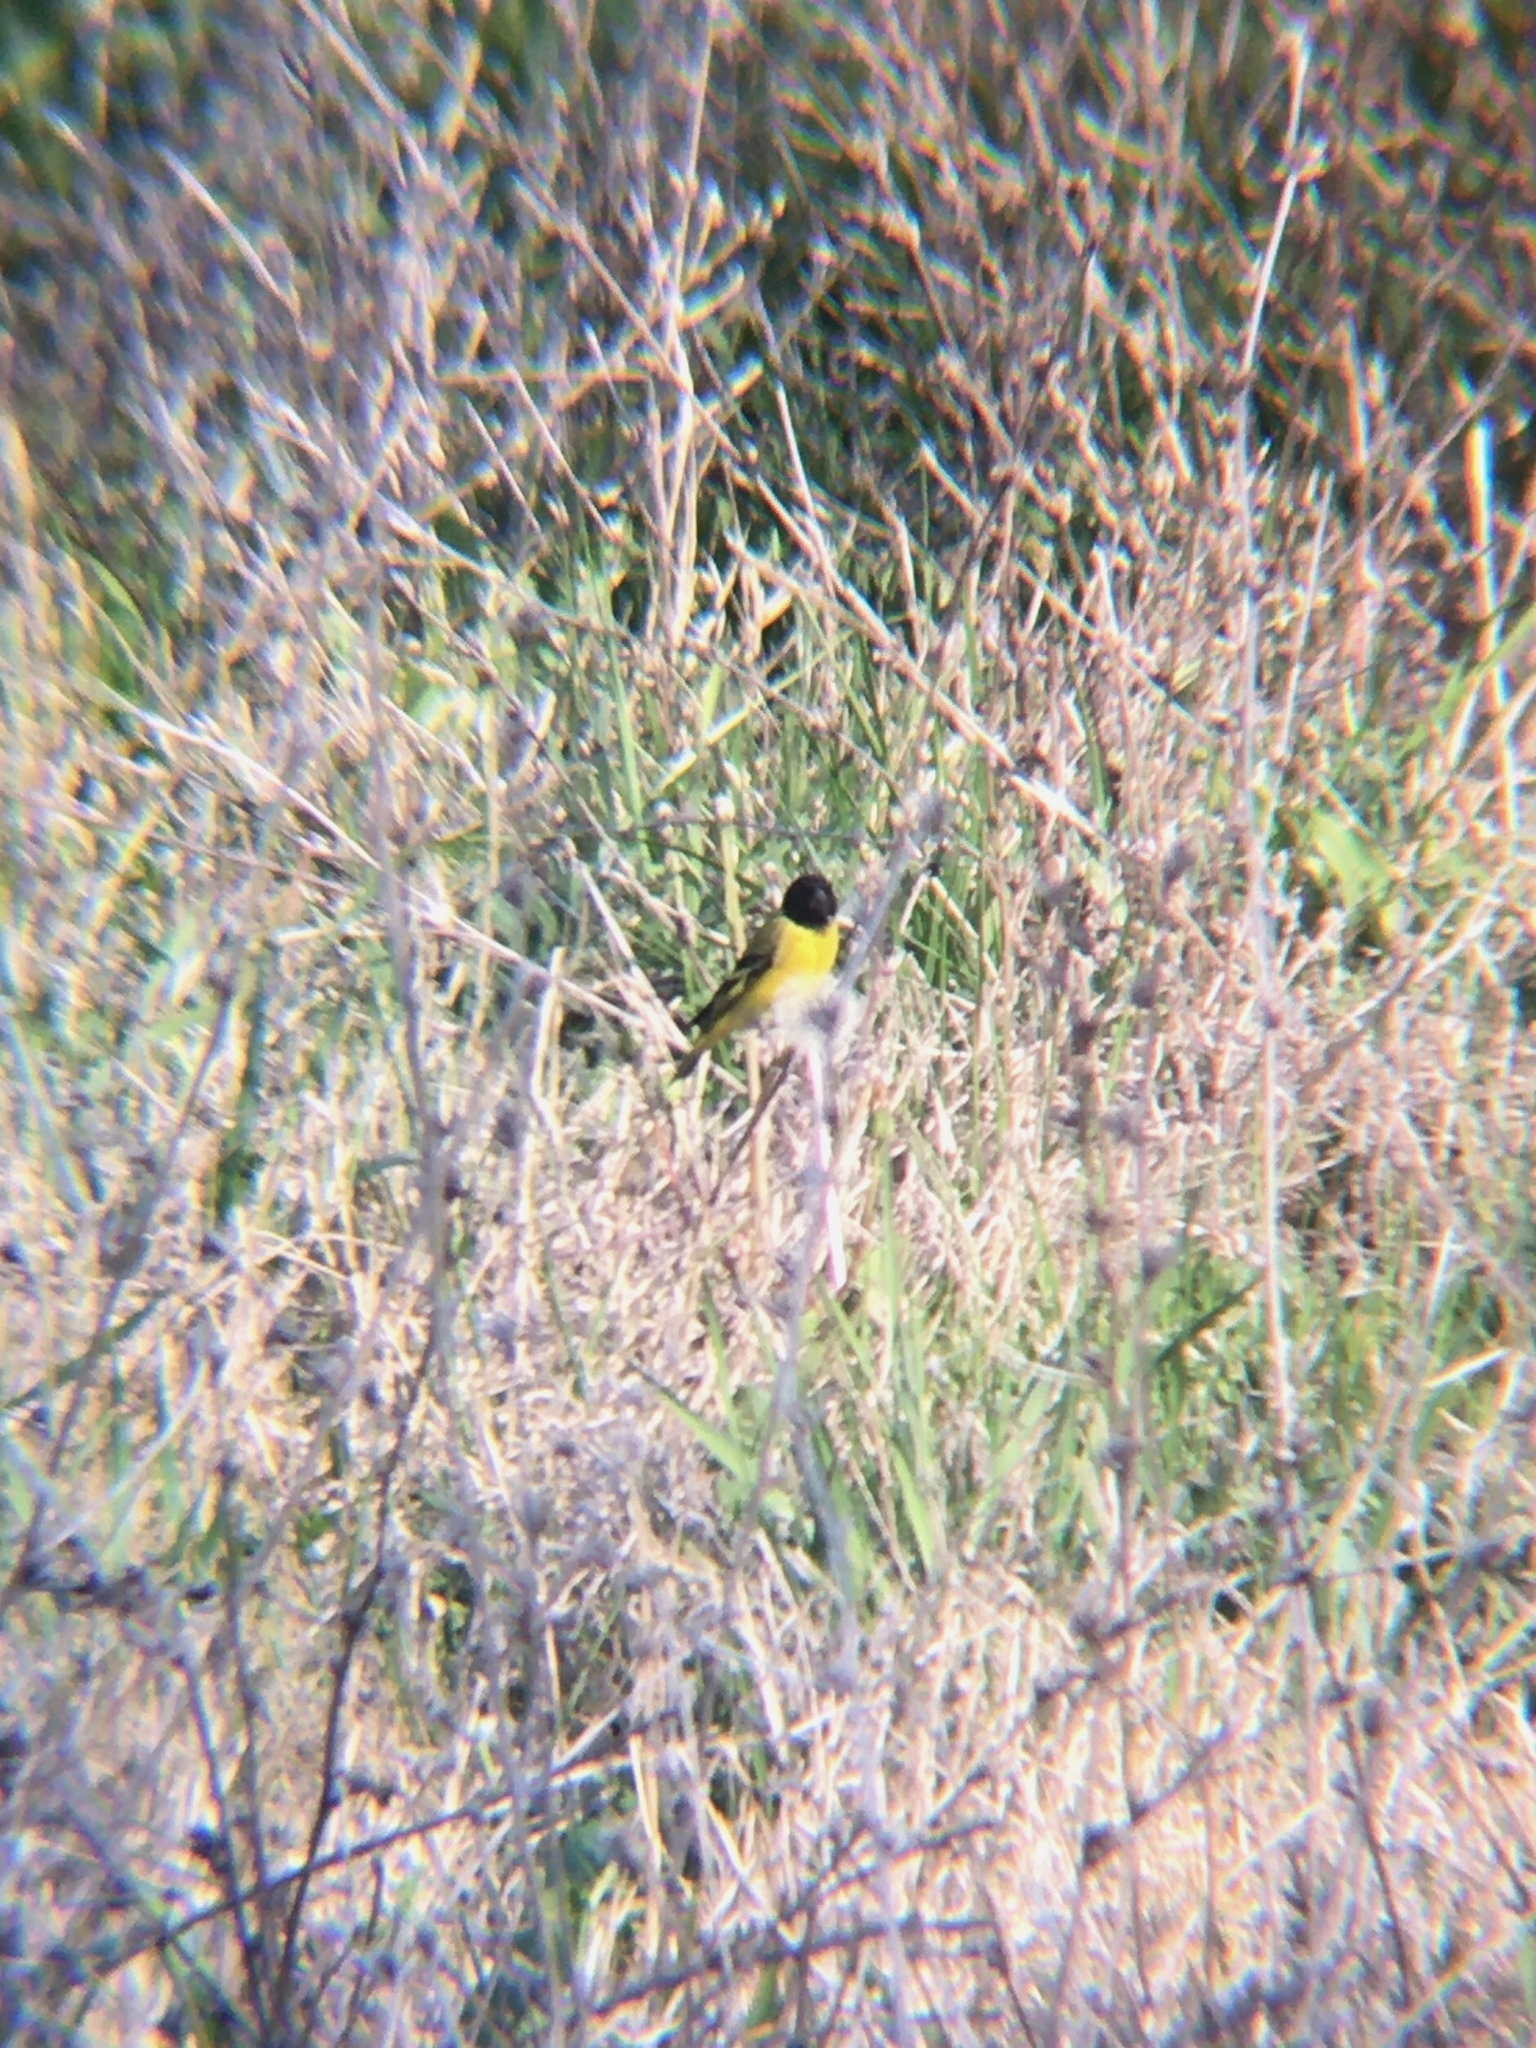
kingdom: Animalia
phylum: Chordata
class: Aves
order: Passeriformes
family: Fringillidae
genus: Spinus
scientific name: Spinus magellanicus
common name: Hooded siskin
